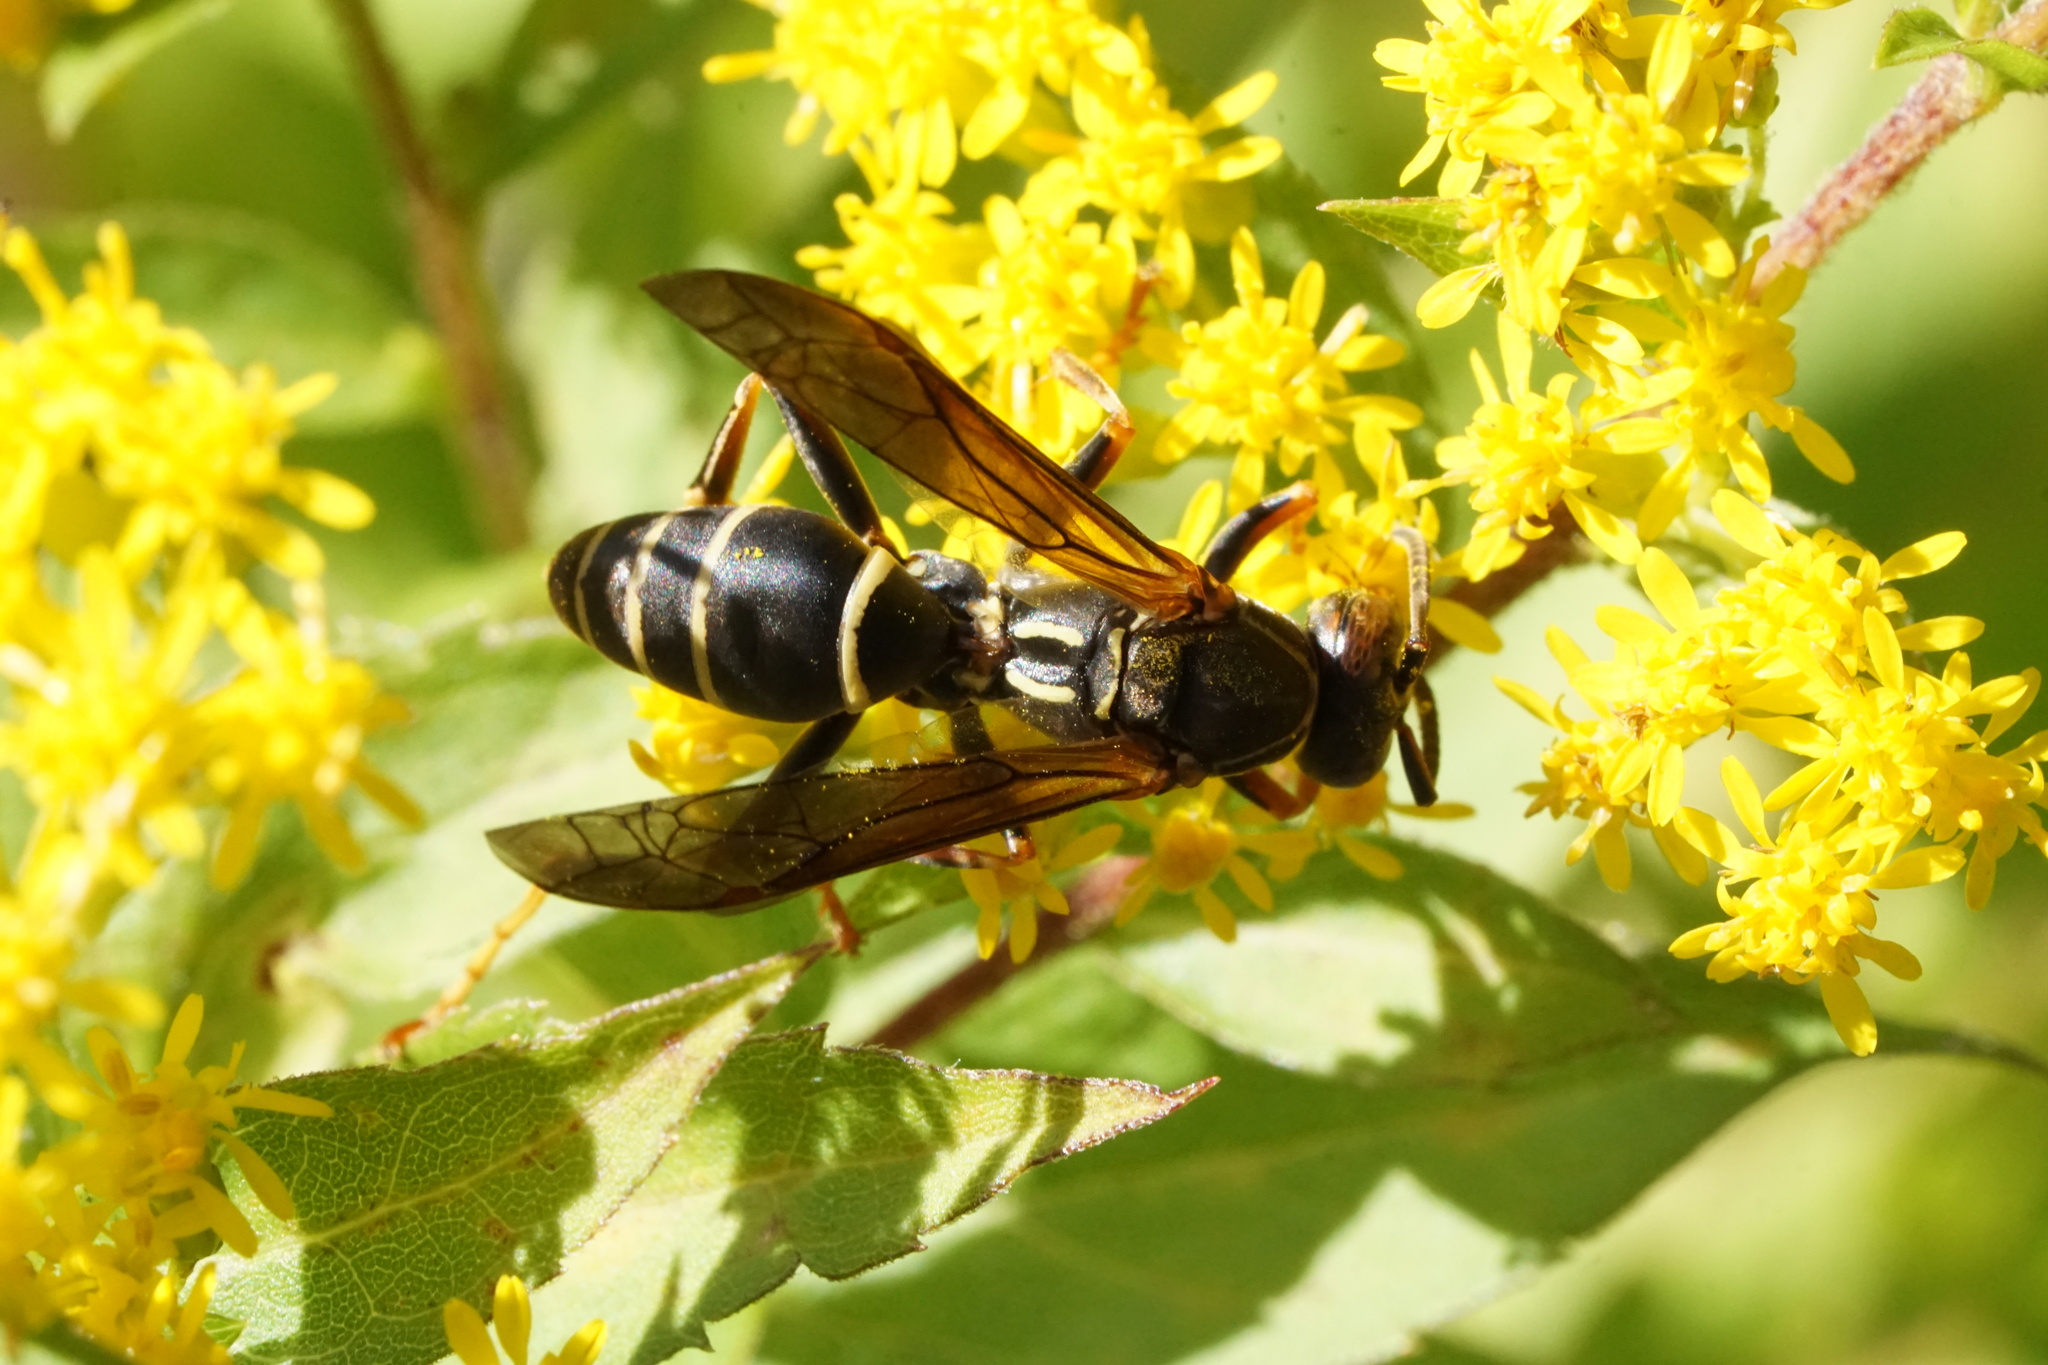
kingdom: Animalia
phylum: Arthropoda
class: Insecta
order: Hymenoptera
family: Eumenidae
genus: Polistes
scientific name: Polistes fuscatus
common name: Dark paper wasp
